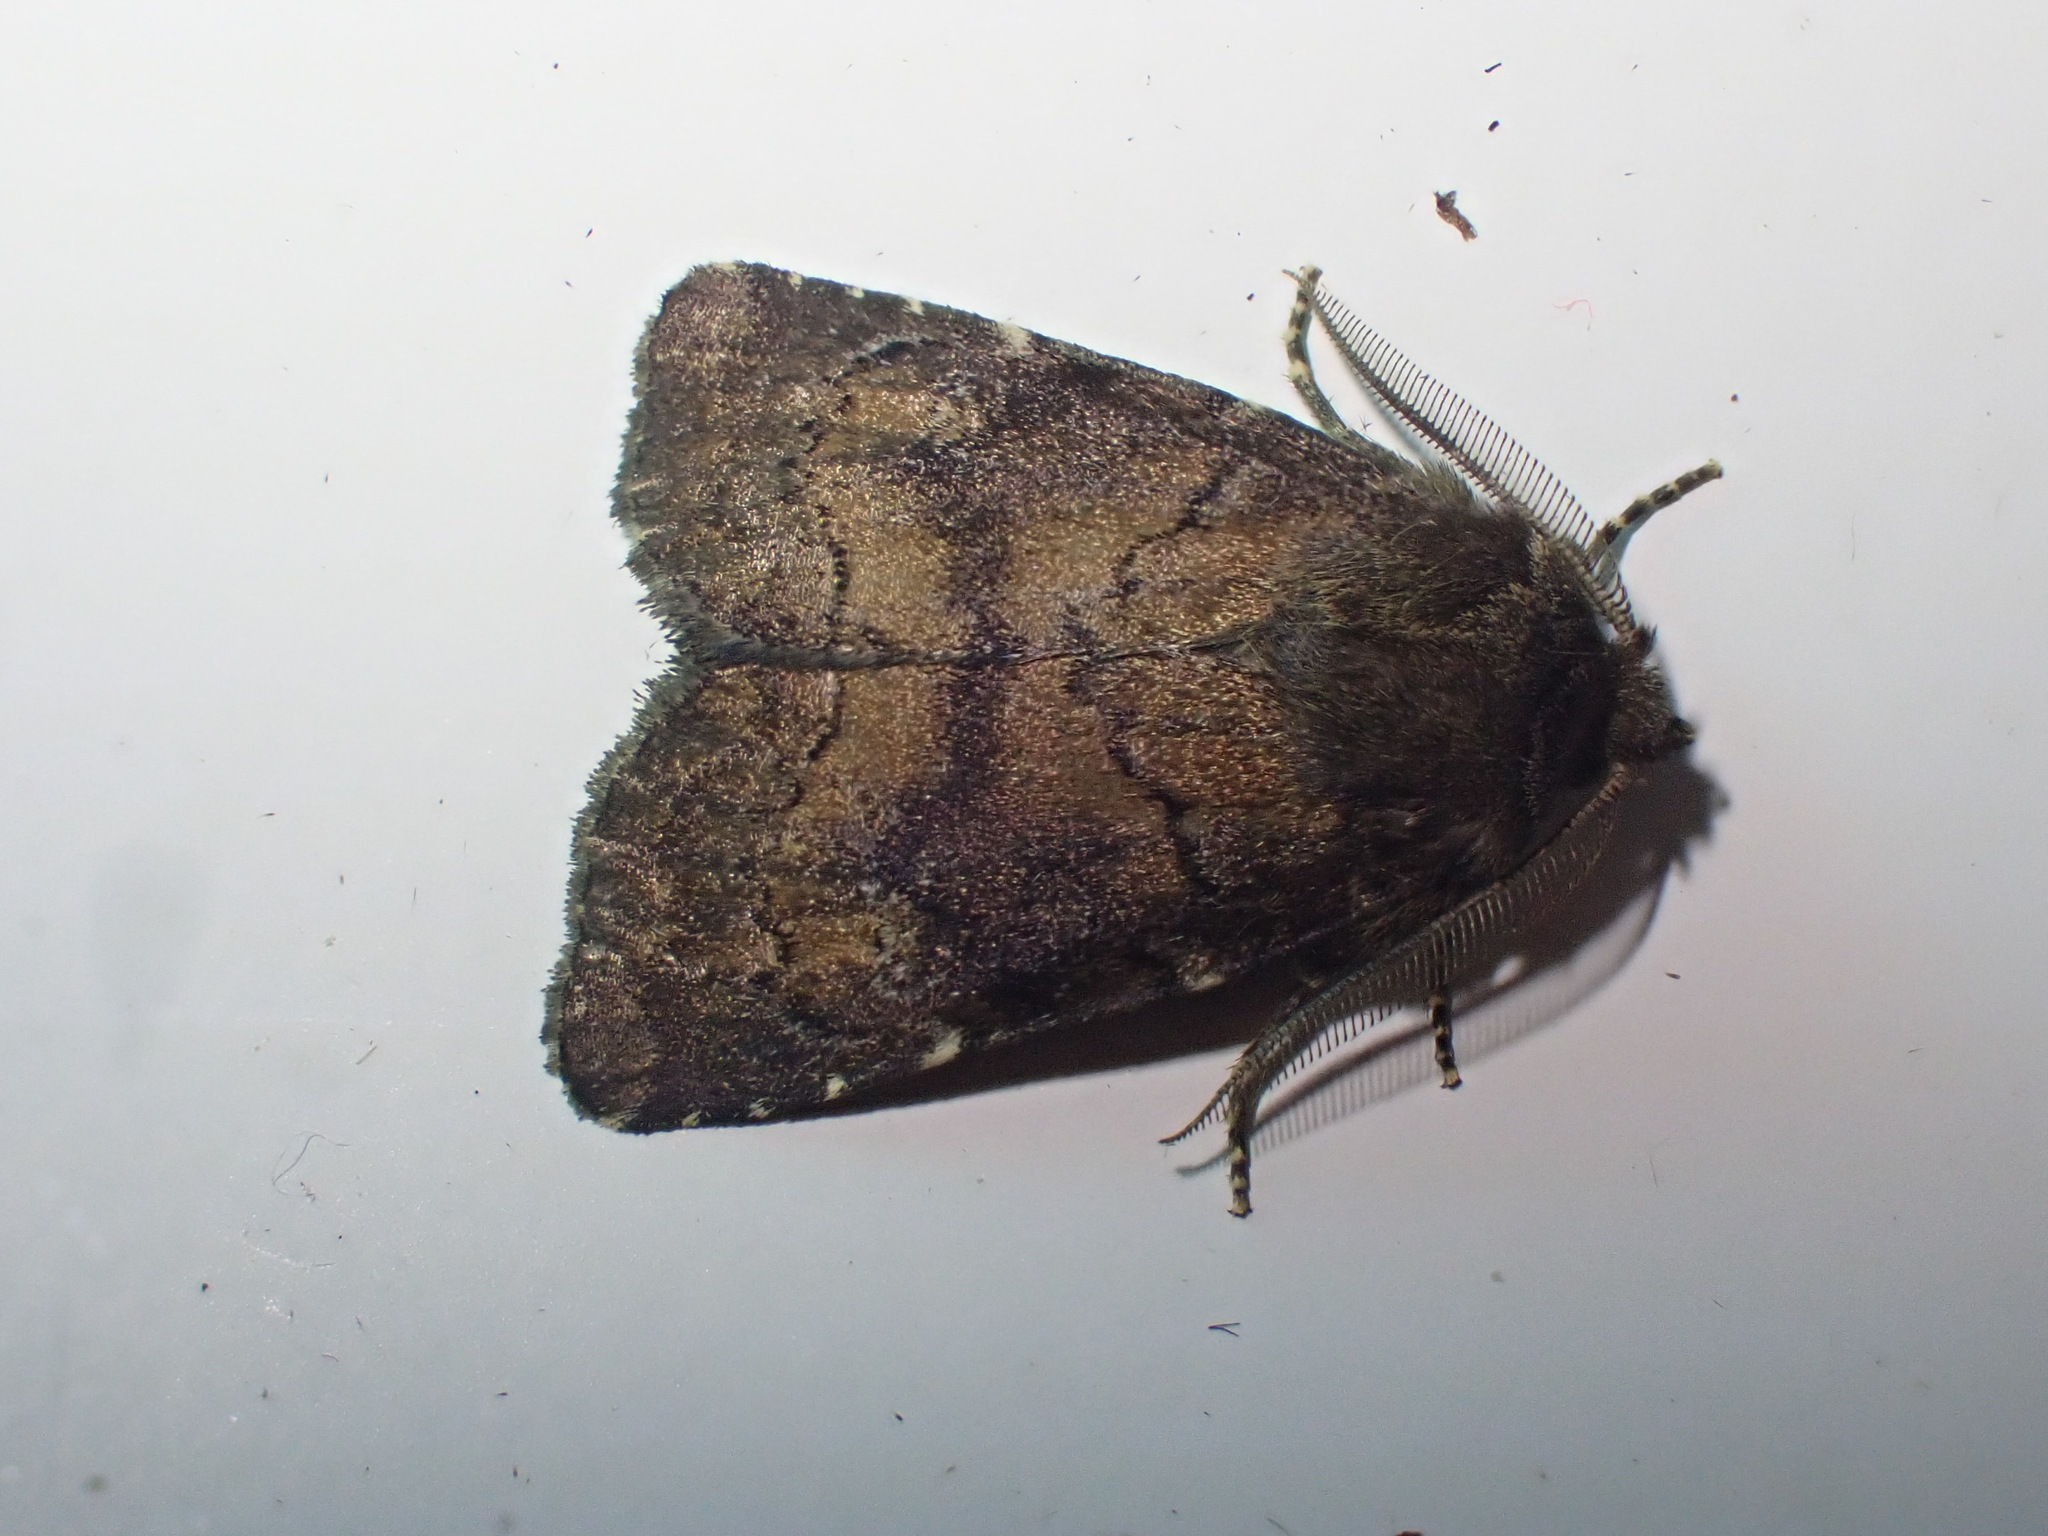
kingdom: Animalia
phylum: Arthropoda
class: Insecta
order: Lepidoptera
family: Noctuidae
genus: Charanyca
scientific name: Charanyca ferruginea
